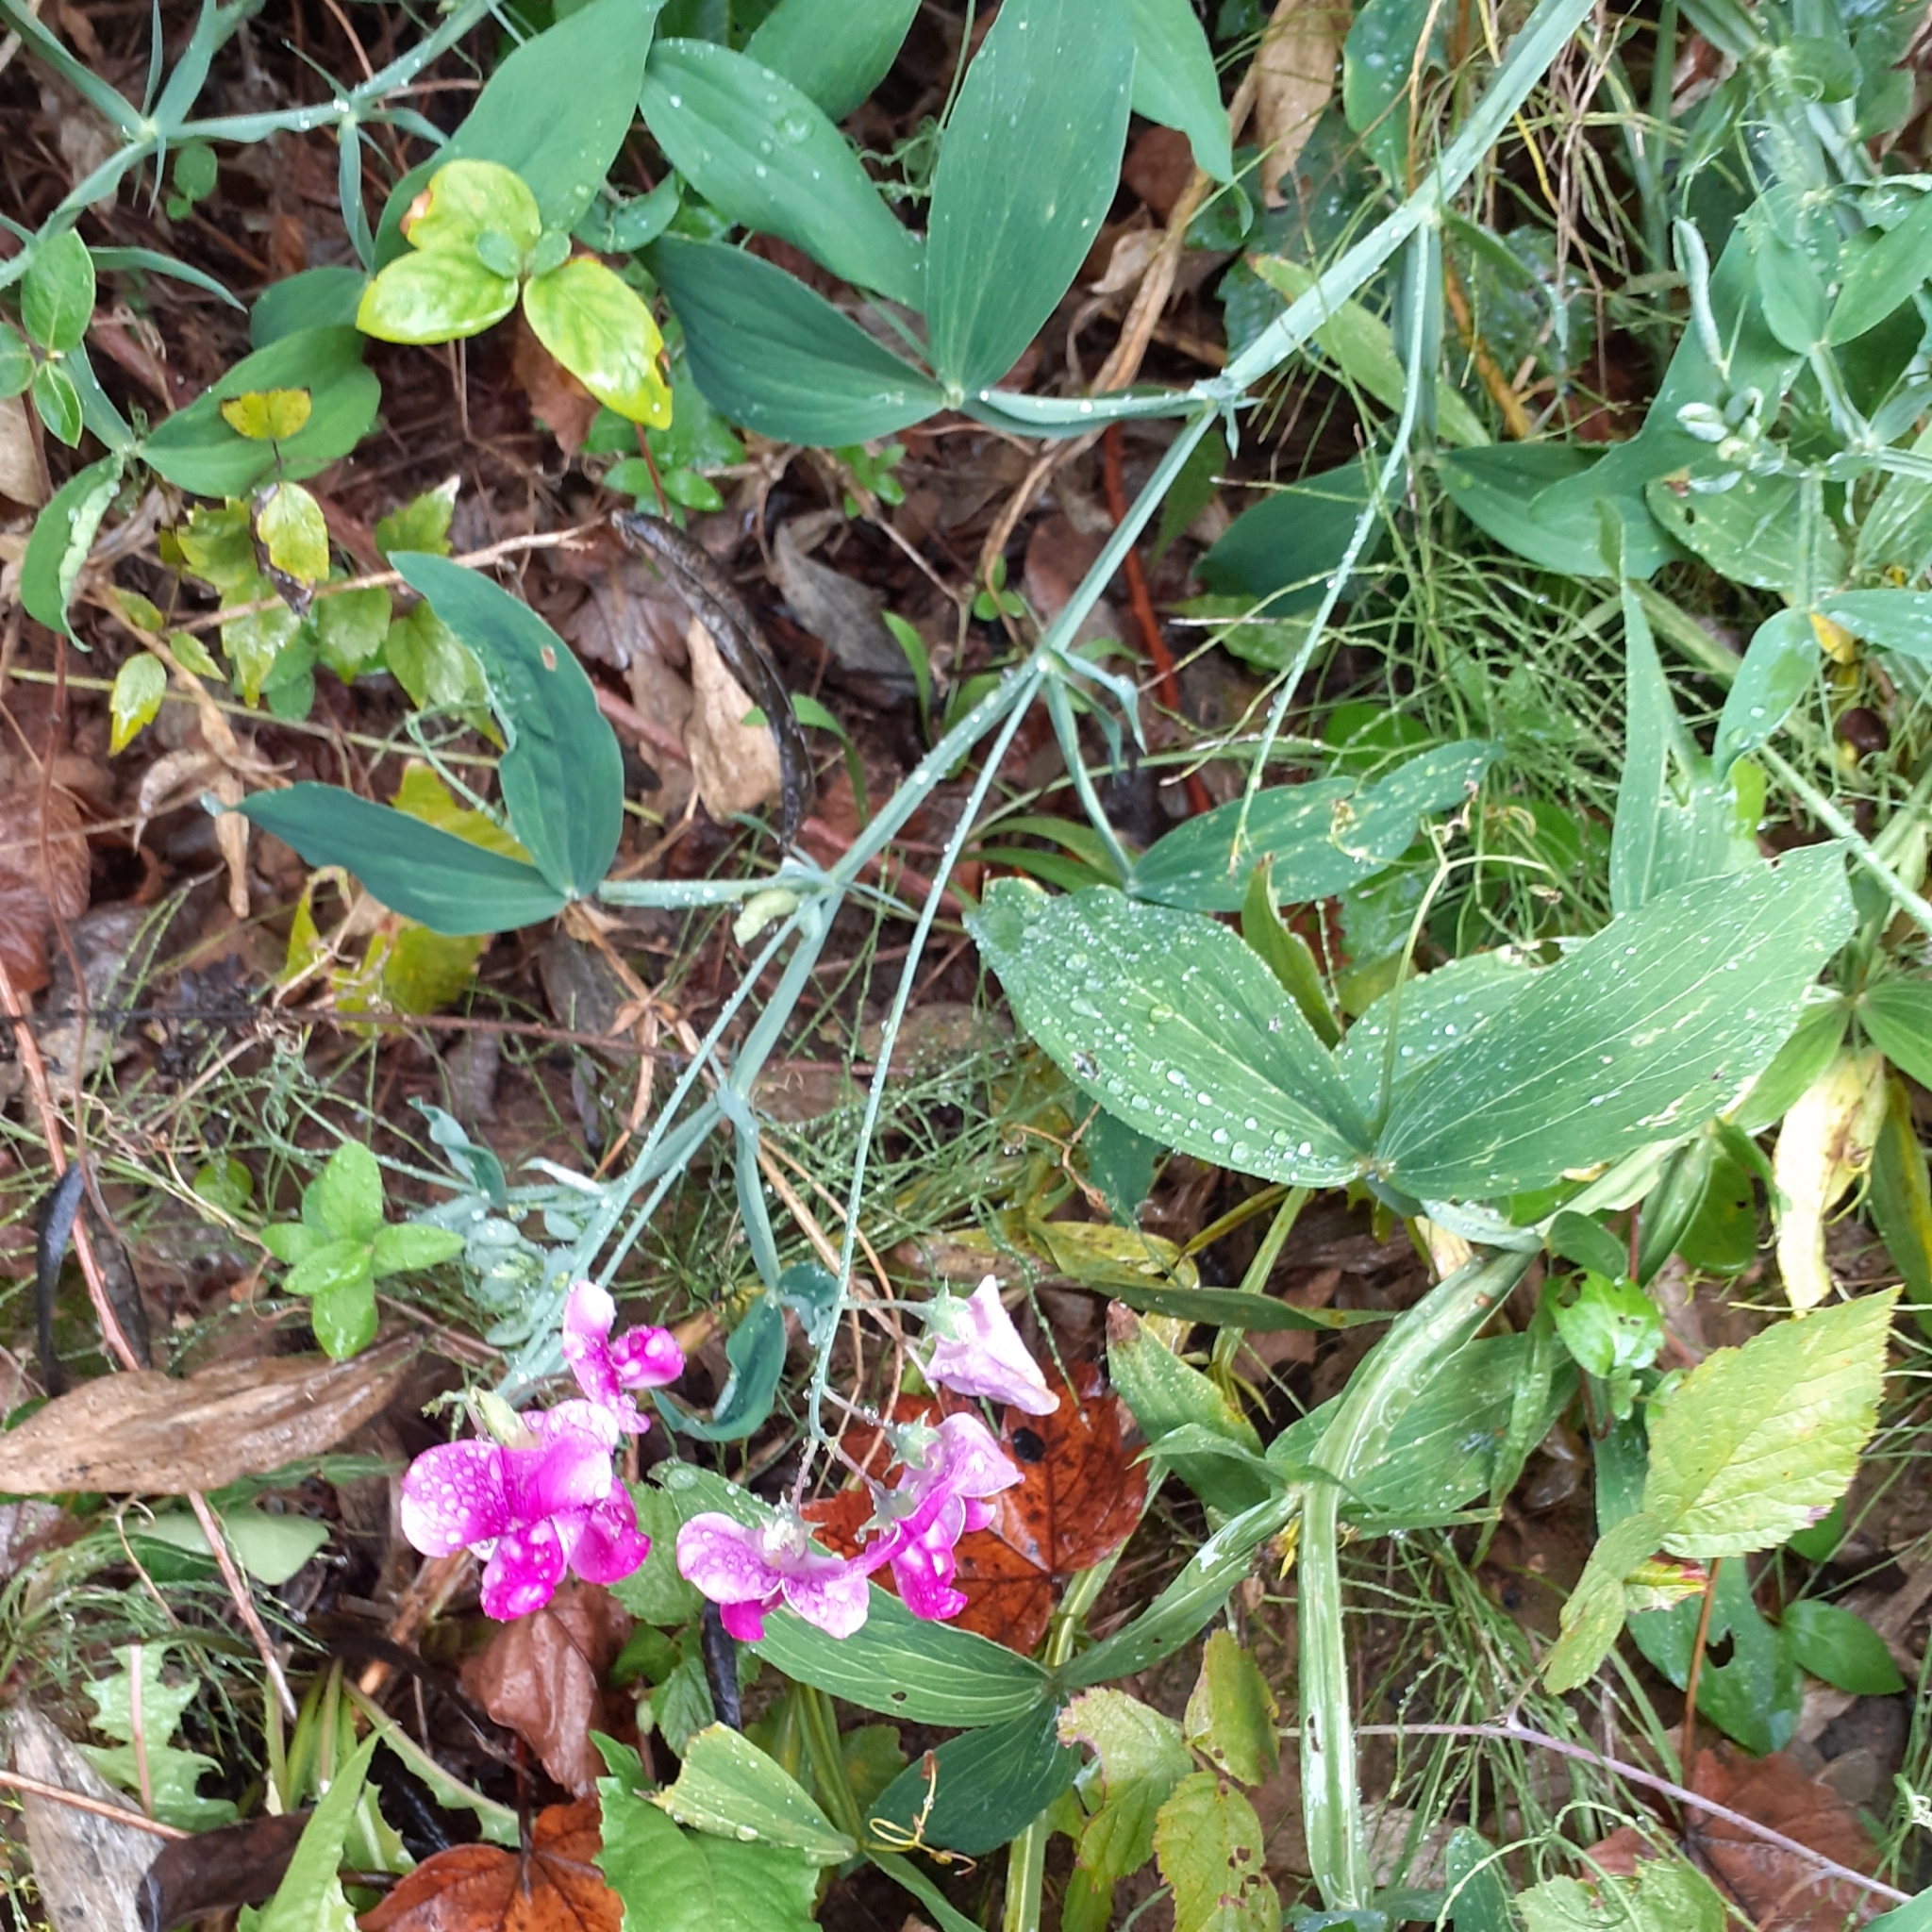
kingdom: Plantae
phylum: Tracheophyta
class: Magnoliopsida
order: Fabales
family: Fabaceae
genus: Lathyrus
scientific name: Lathyrus latifolius
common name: Perennial pea
